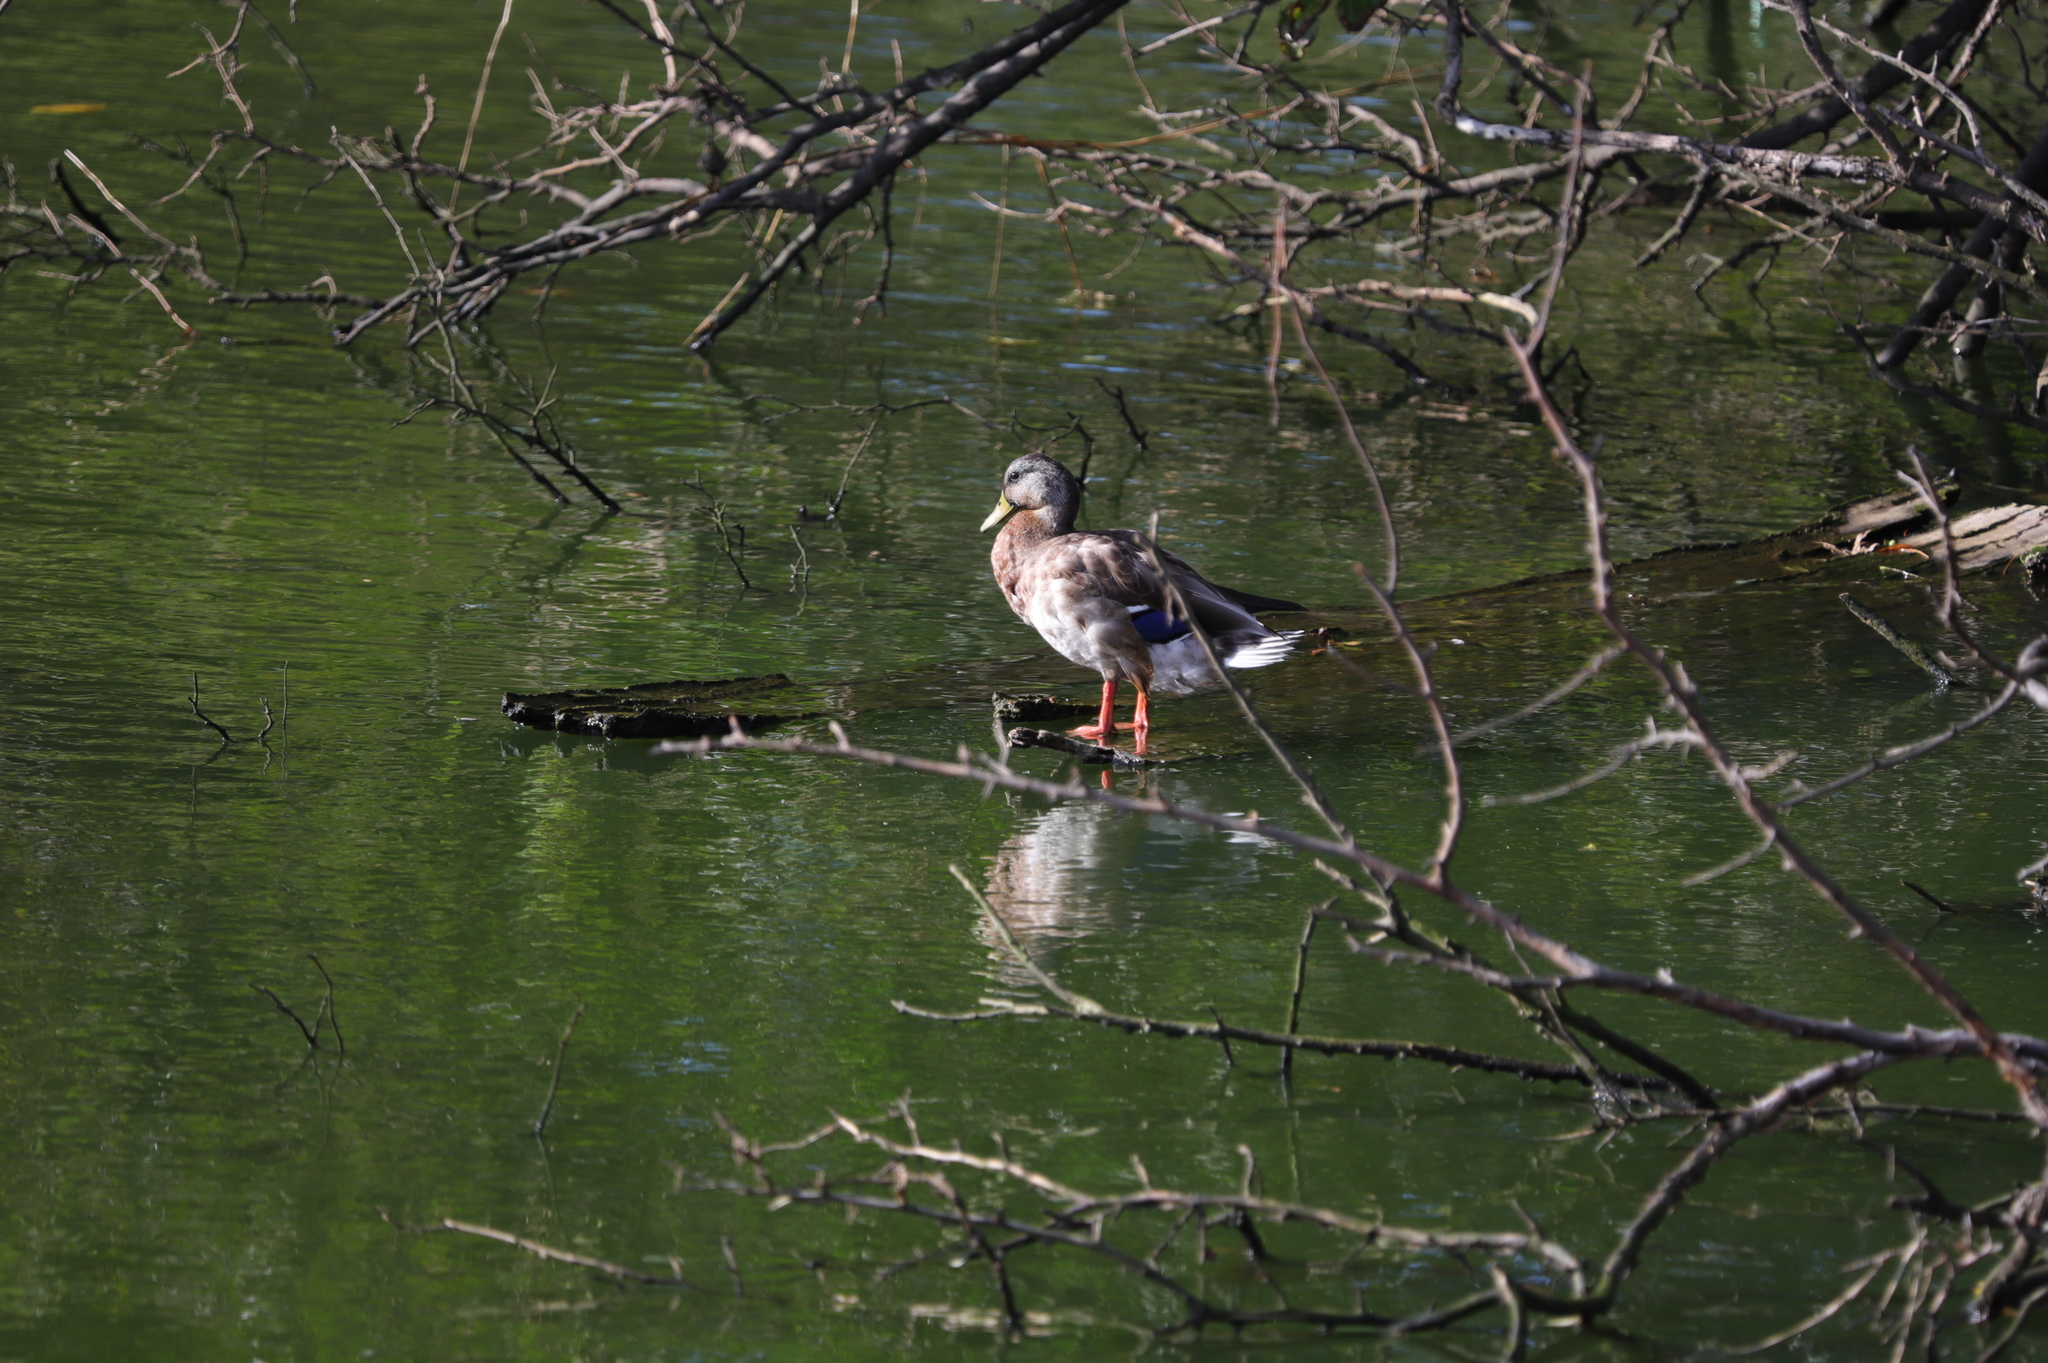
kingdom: Animalia
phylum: Chordata
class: Aves
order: Anseriformes
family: Anatidae
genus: Anas
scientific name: Anas platyrhynchos
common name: Mallard
